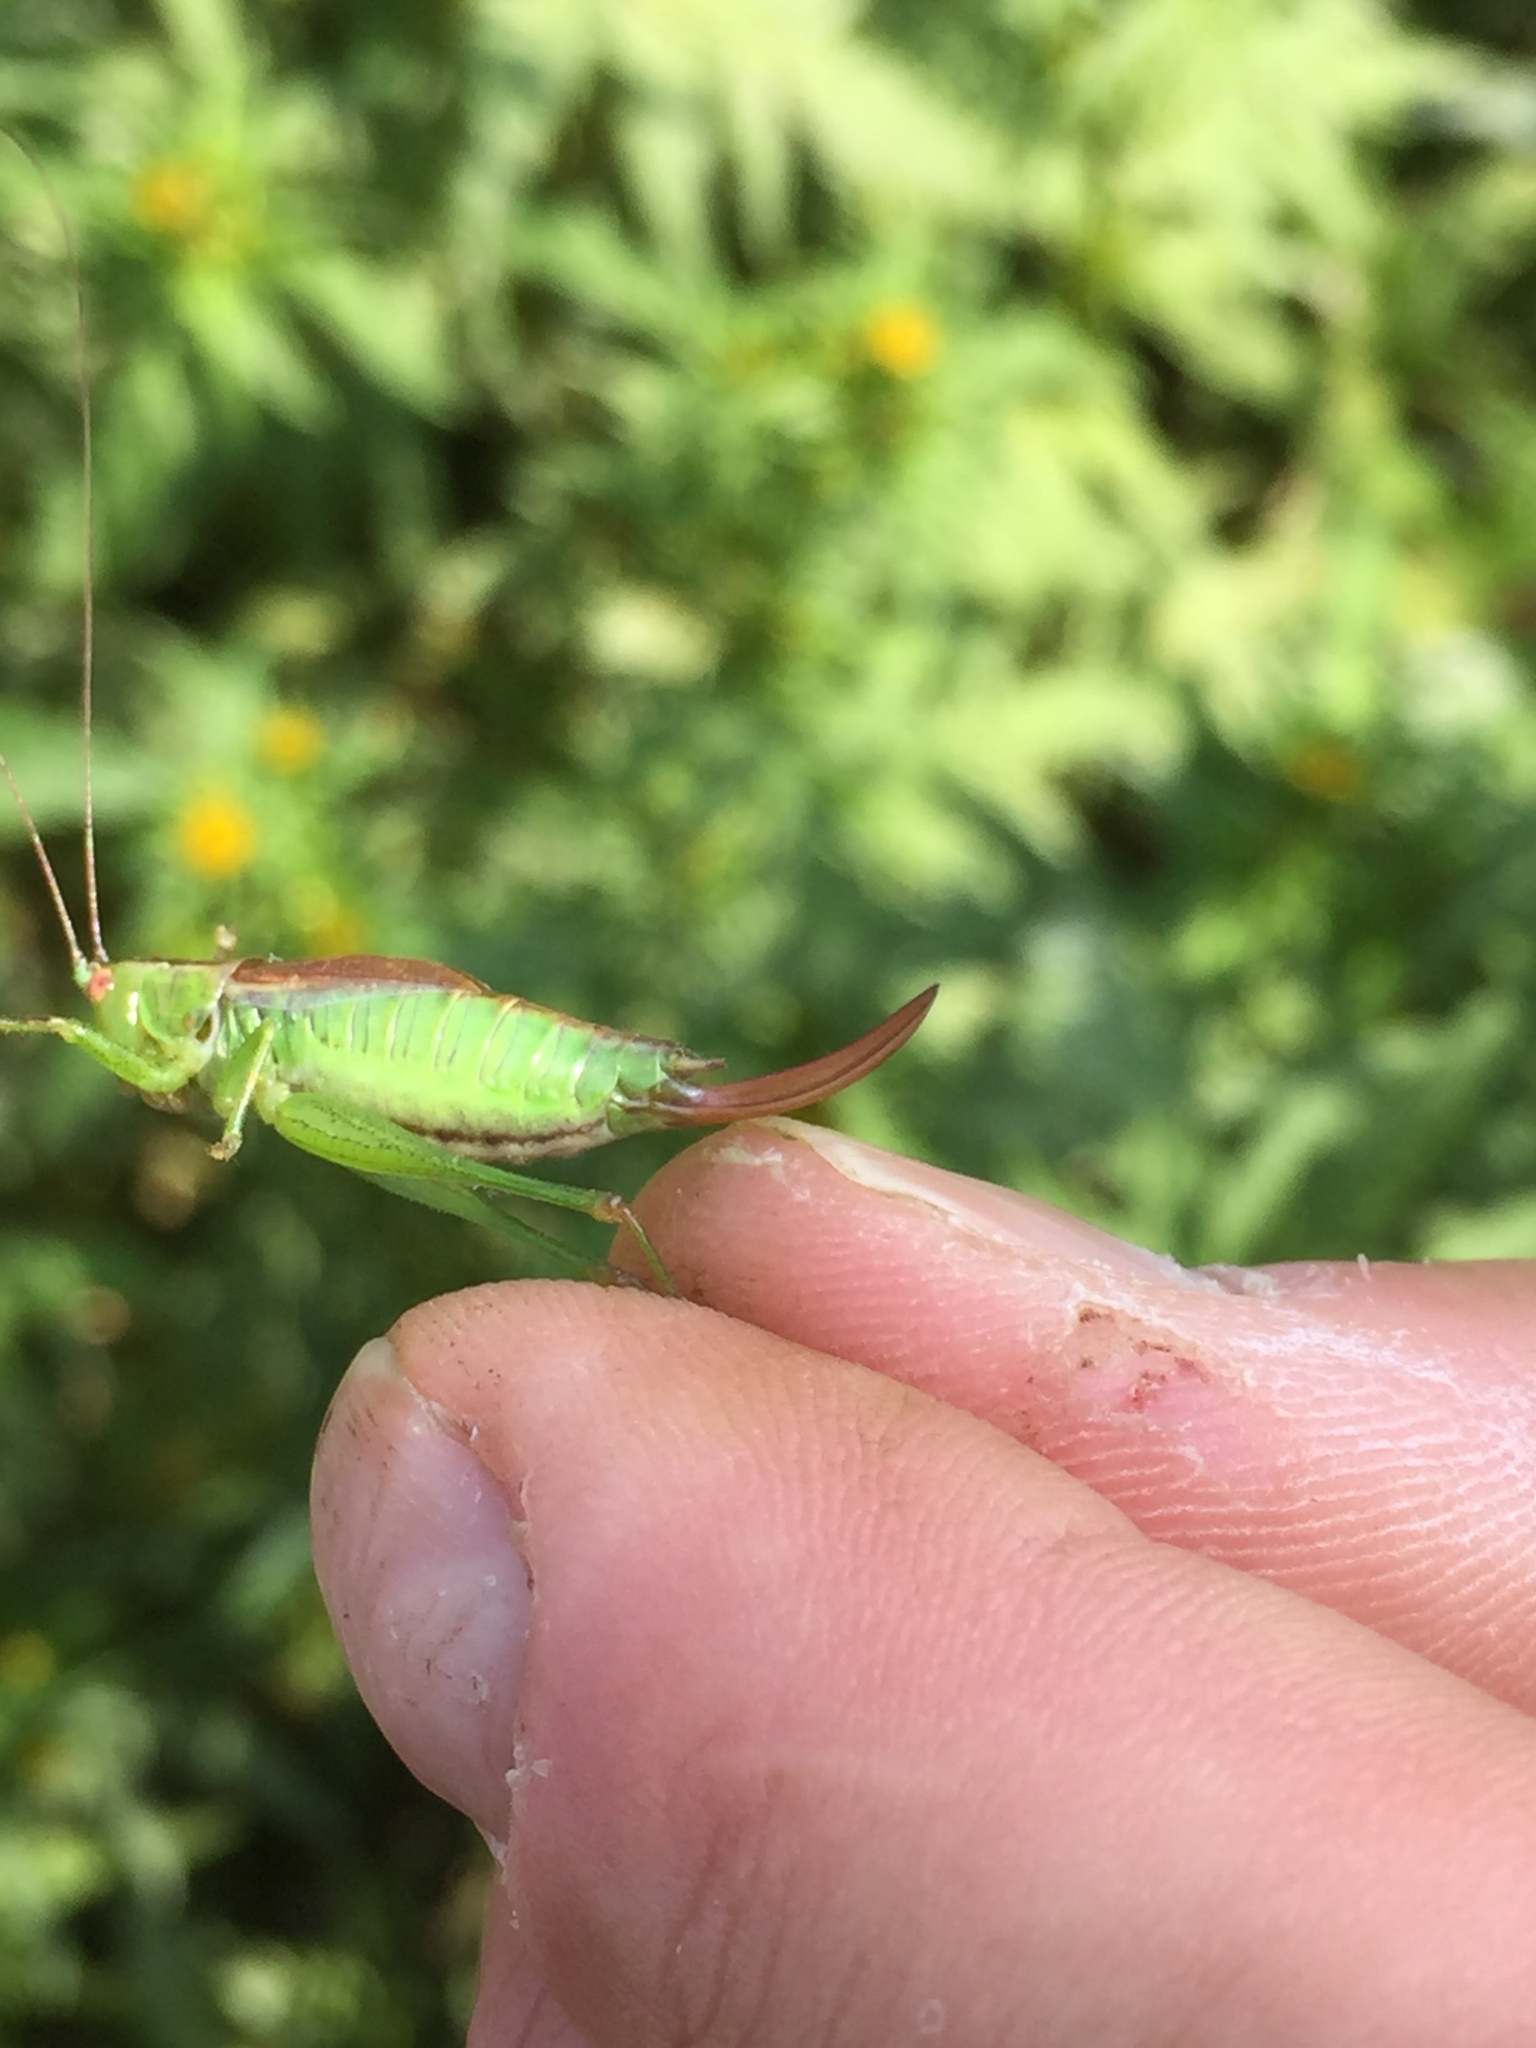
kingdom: Animalia
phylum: Arthropoda
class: Insecta
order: Orthoptera
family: Tettigoniidae
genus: Conocephalus
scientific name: Conocephalus dorsalis
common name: Short-winged conehead
